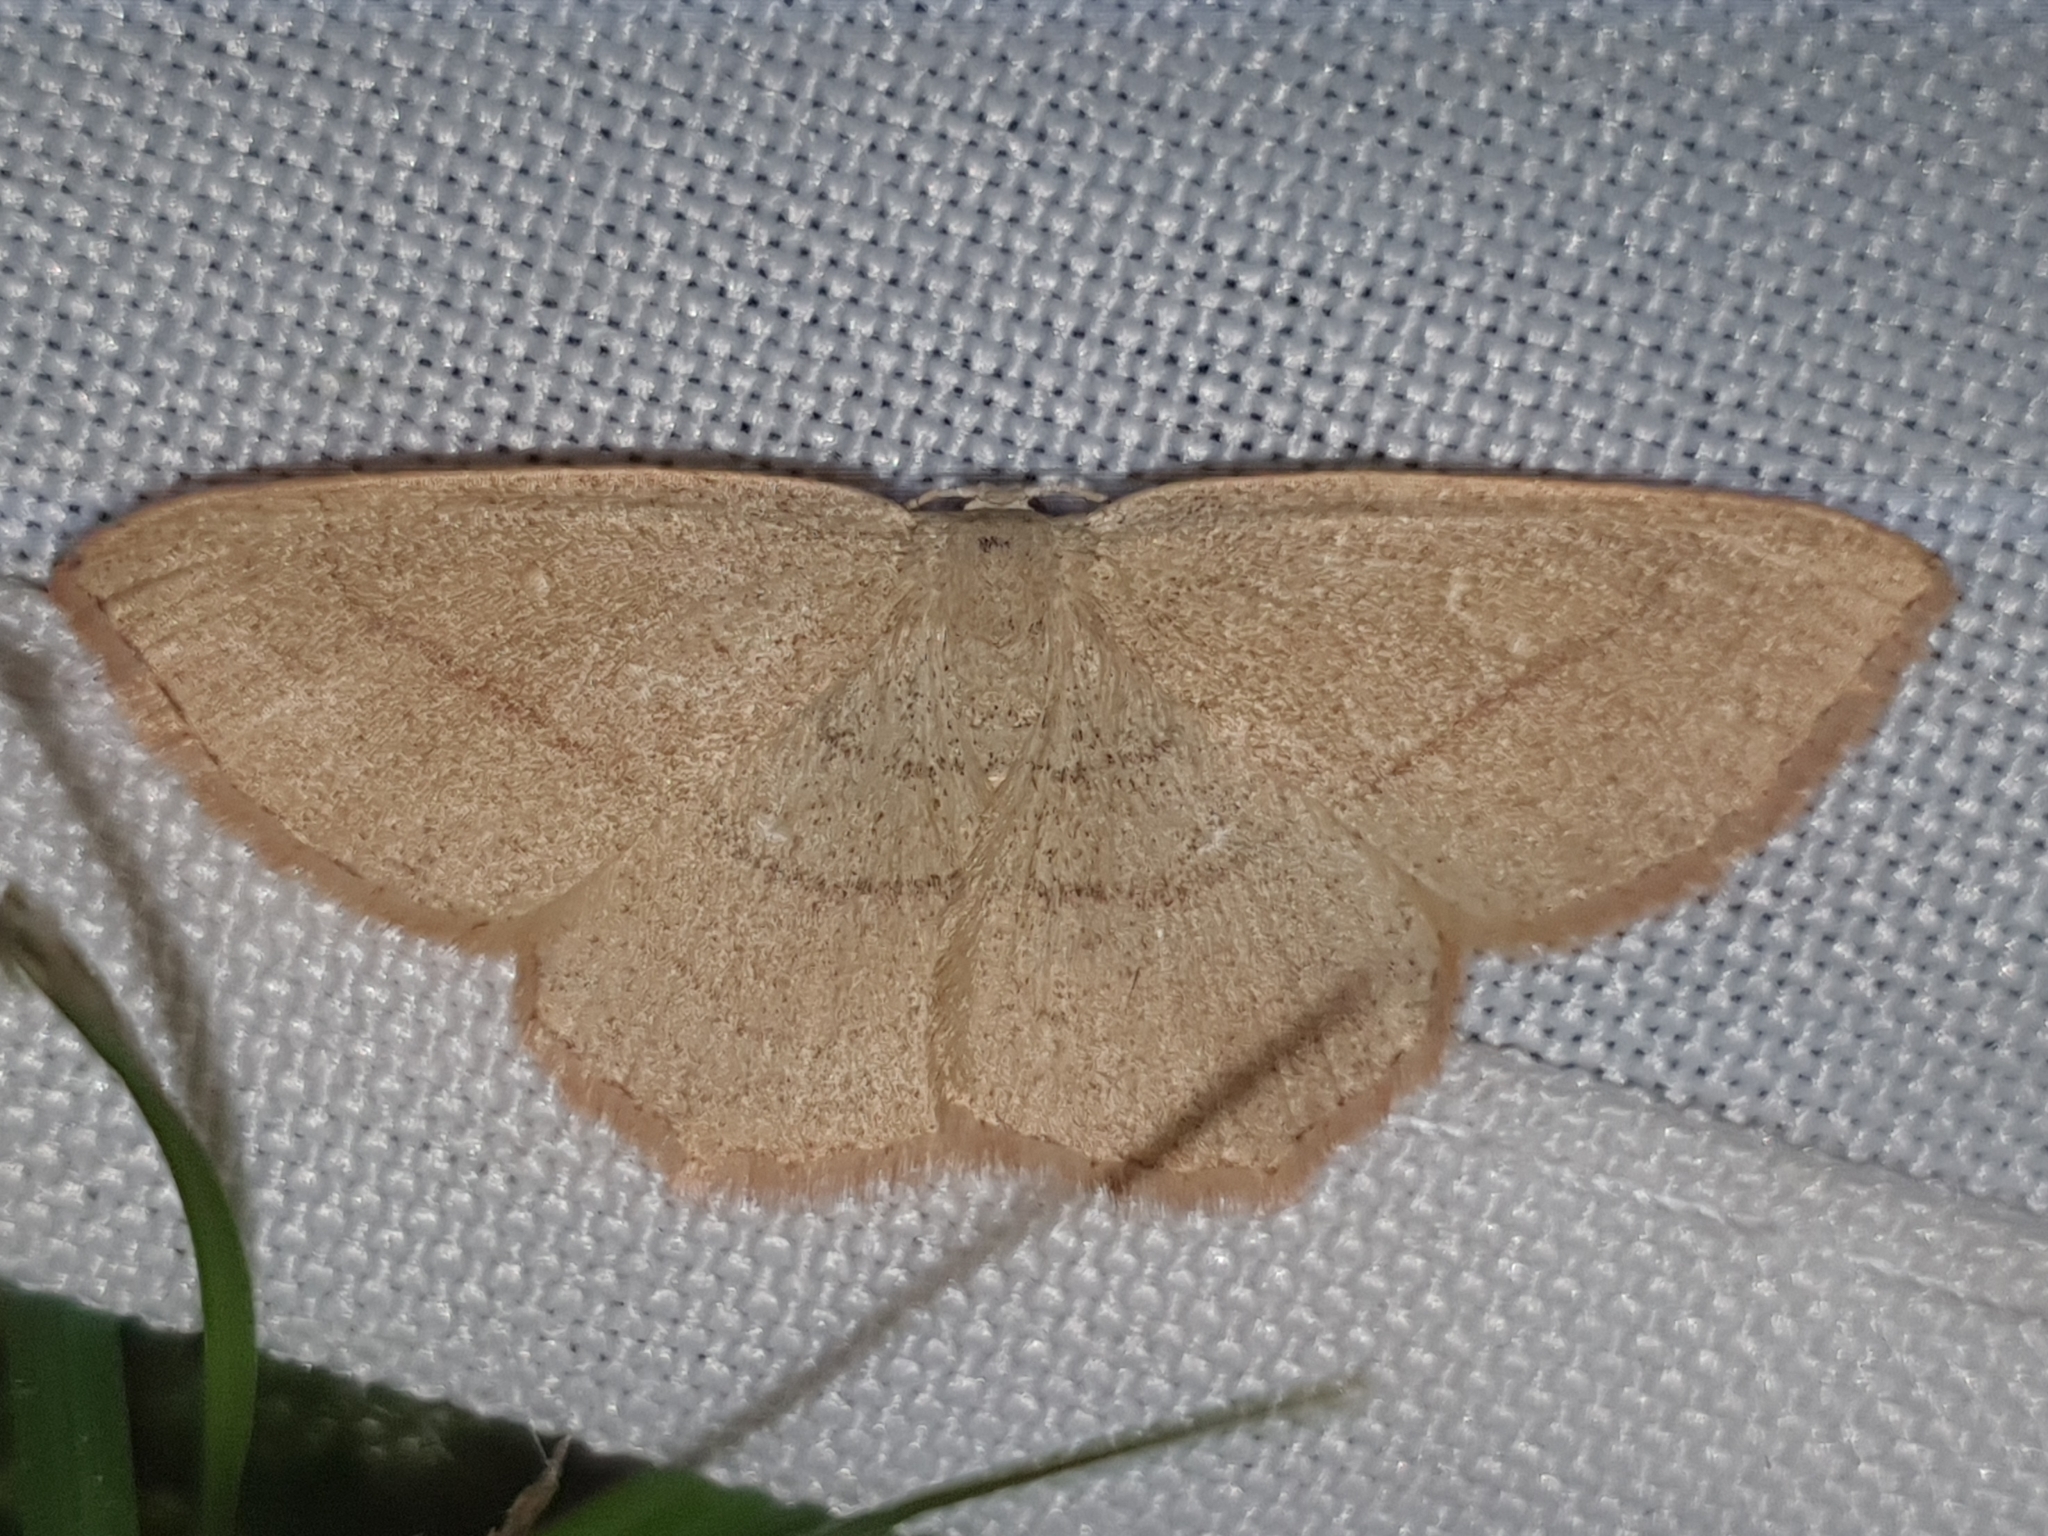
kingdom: Animalia
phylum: Arthropoda
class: Insecta
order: Lepidoptera
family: Geometridae
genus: Cyclophora
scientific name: Cyclophora linearia
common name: Clay triple-lines
